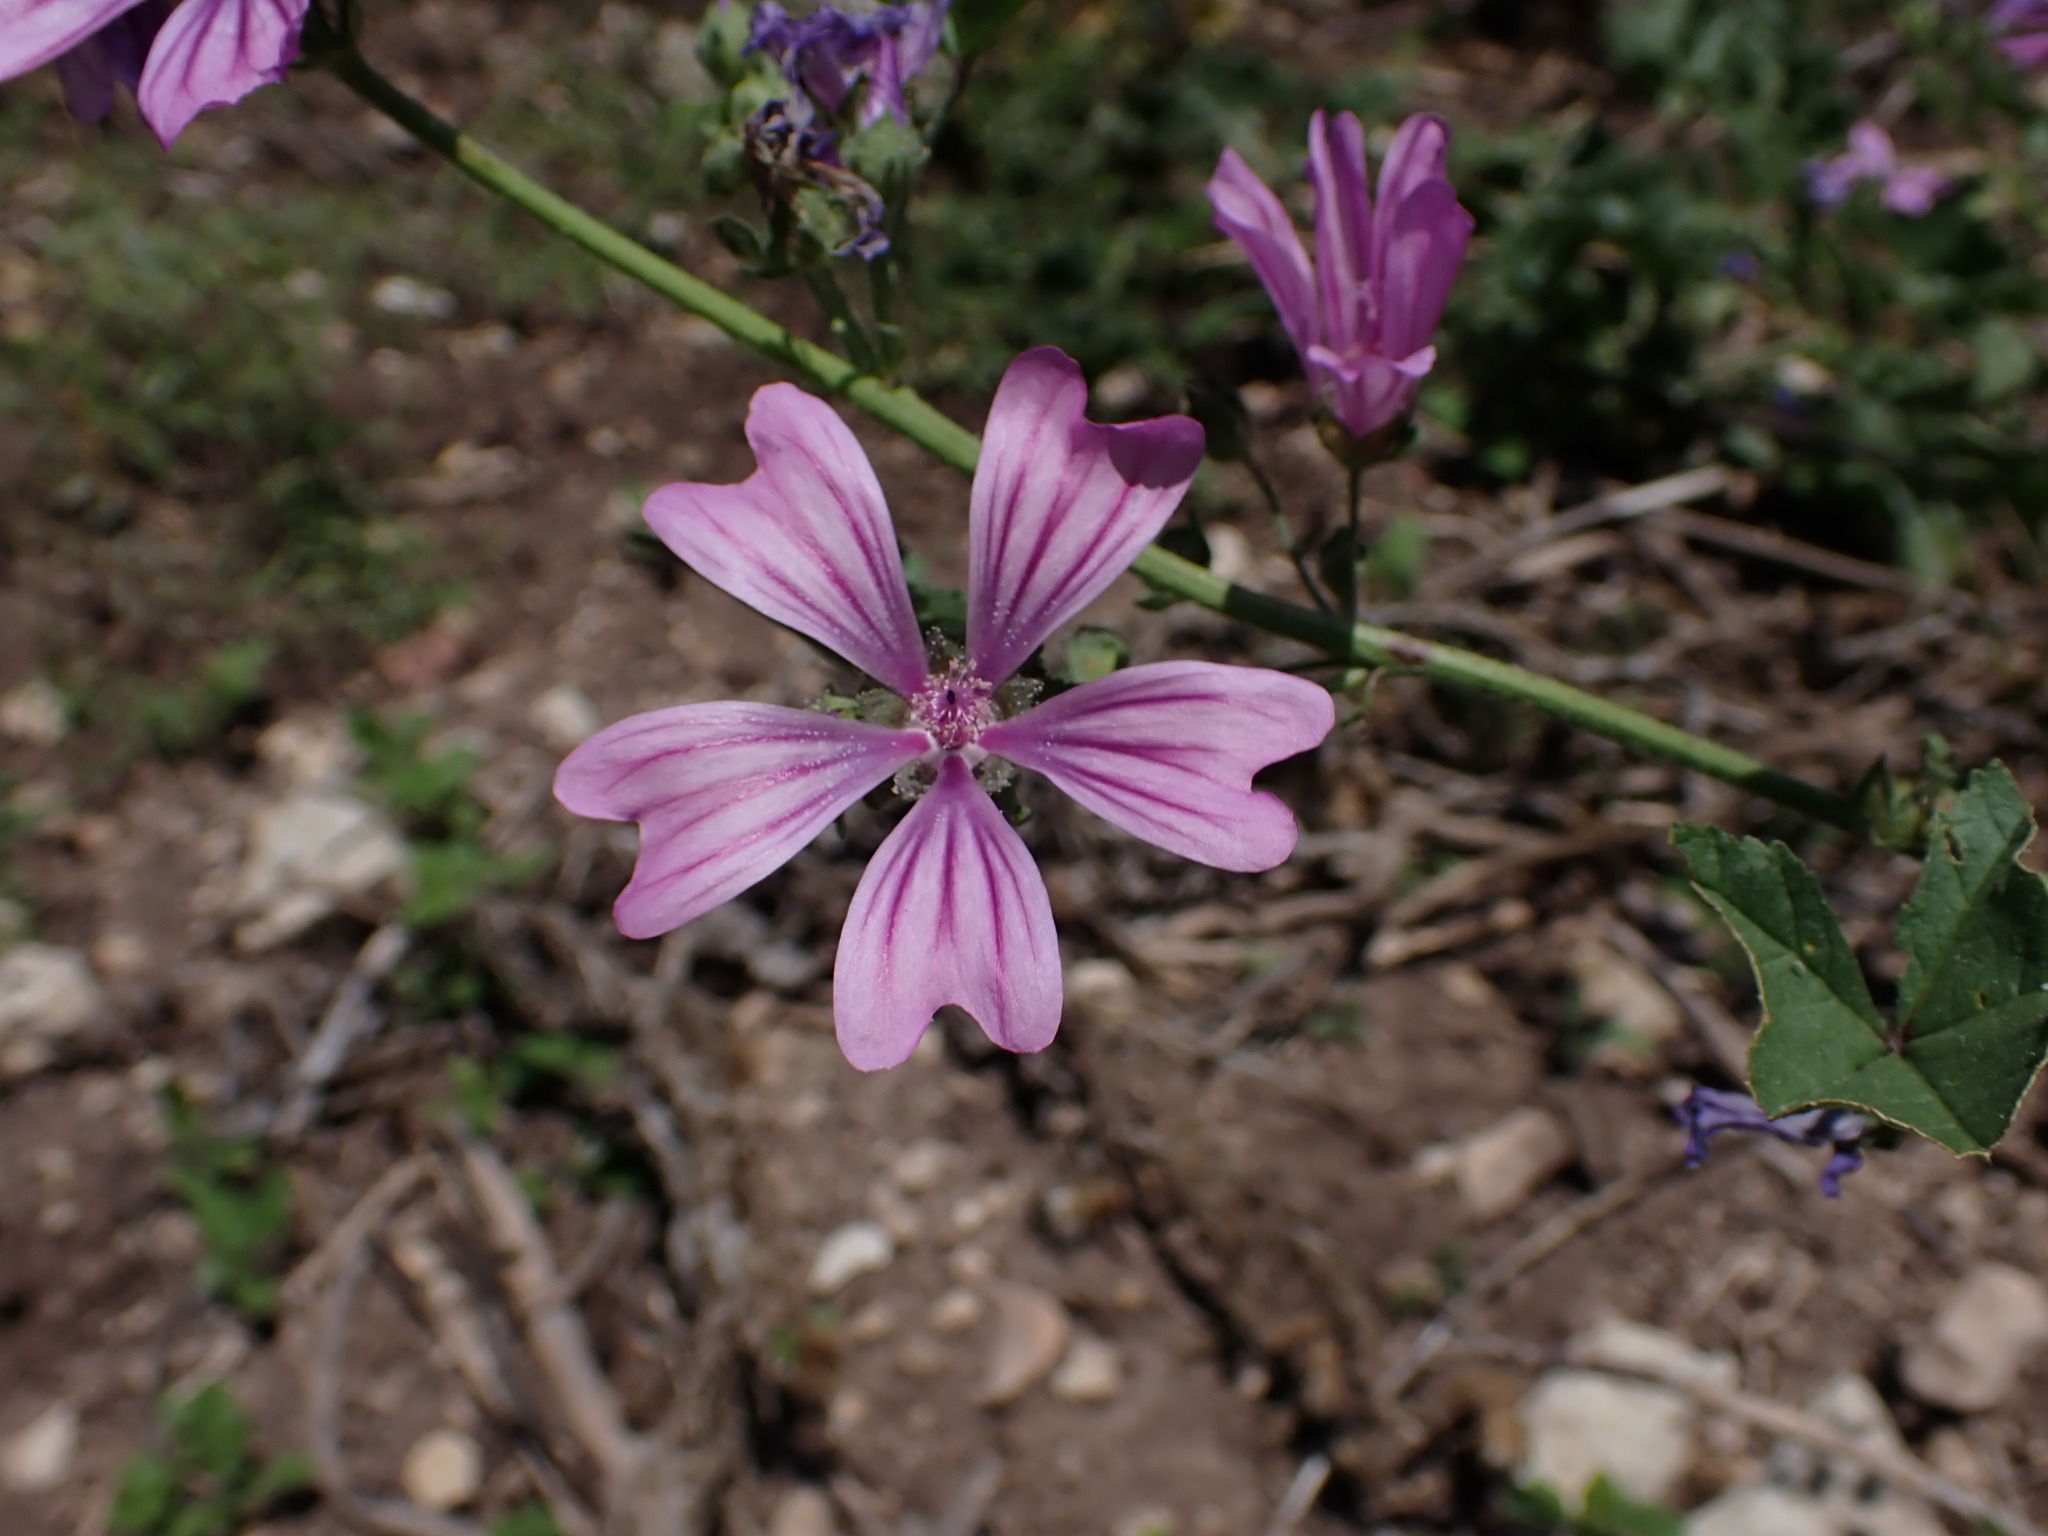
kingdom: Plantae
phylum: Tracheophyta
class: Magnoliopsida
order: Malvales
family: Malvaceae
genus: Malva
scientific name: Malva sylvestris
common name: Common mallow
